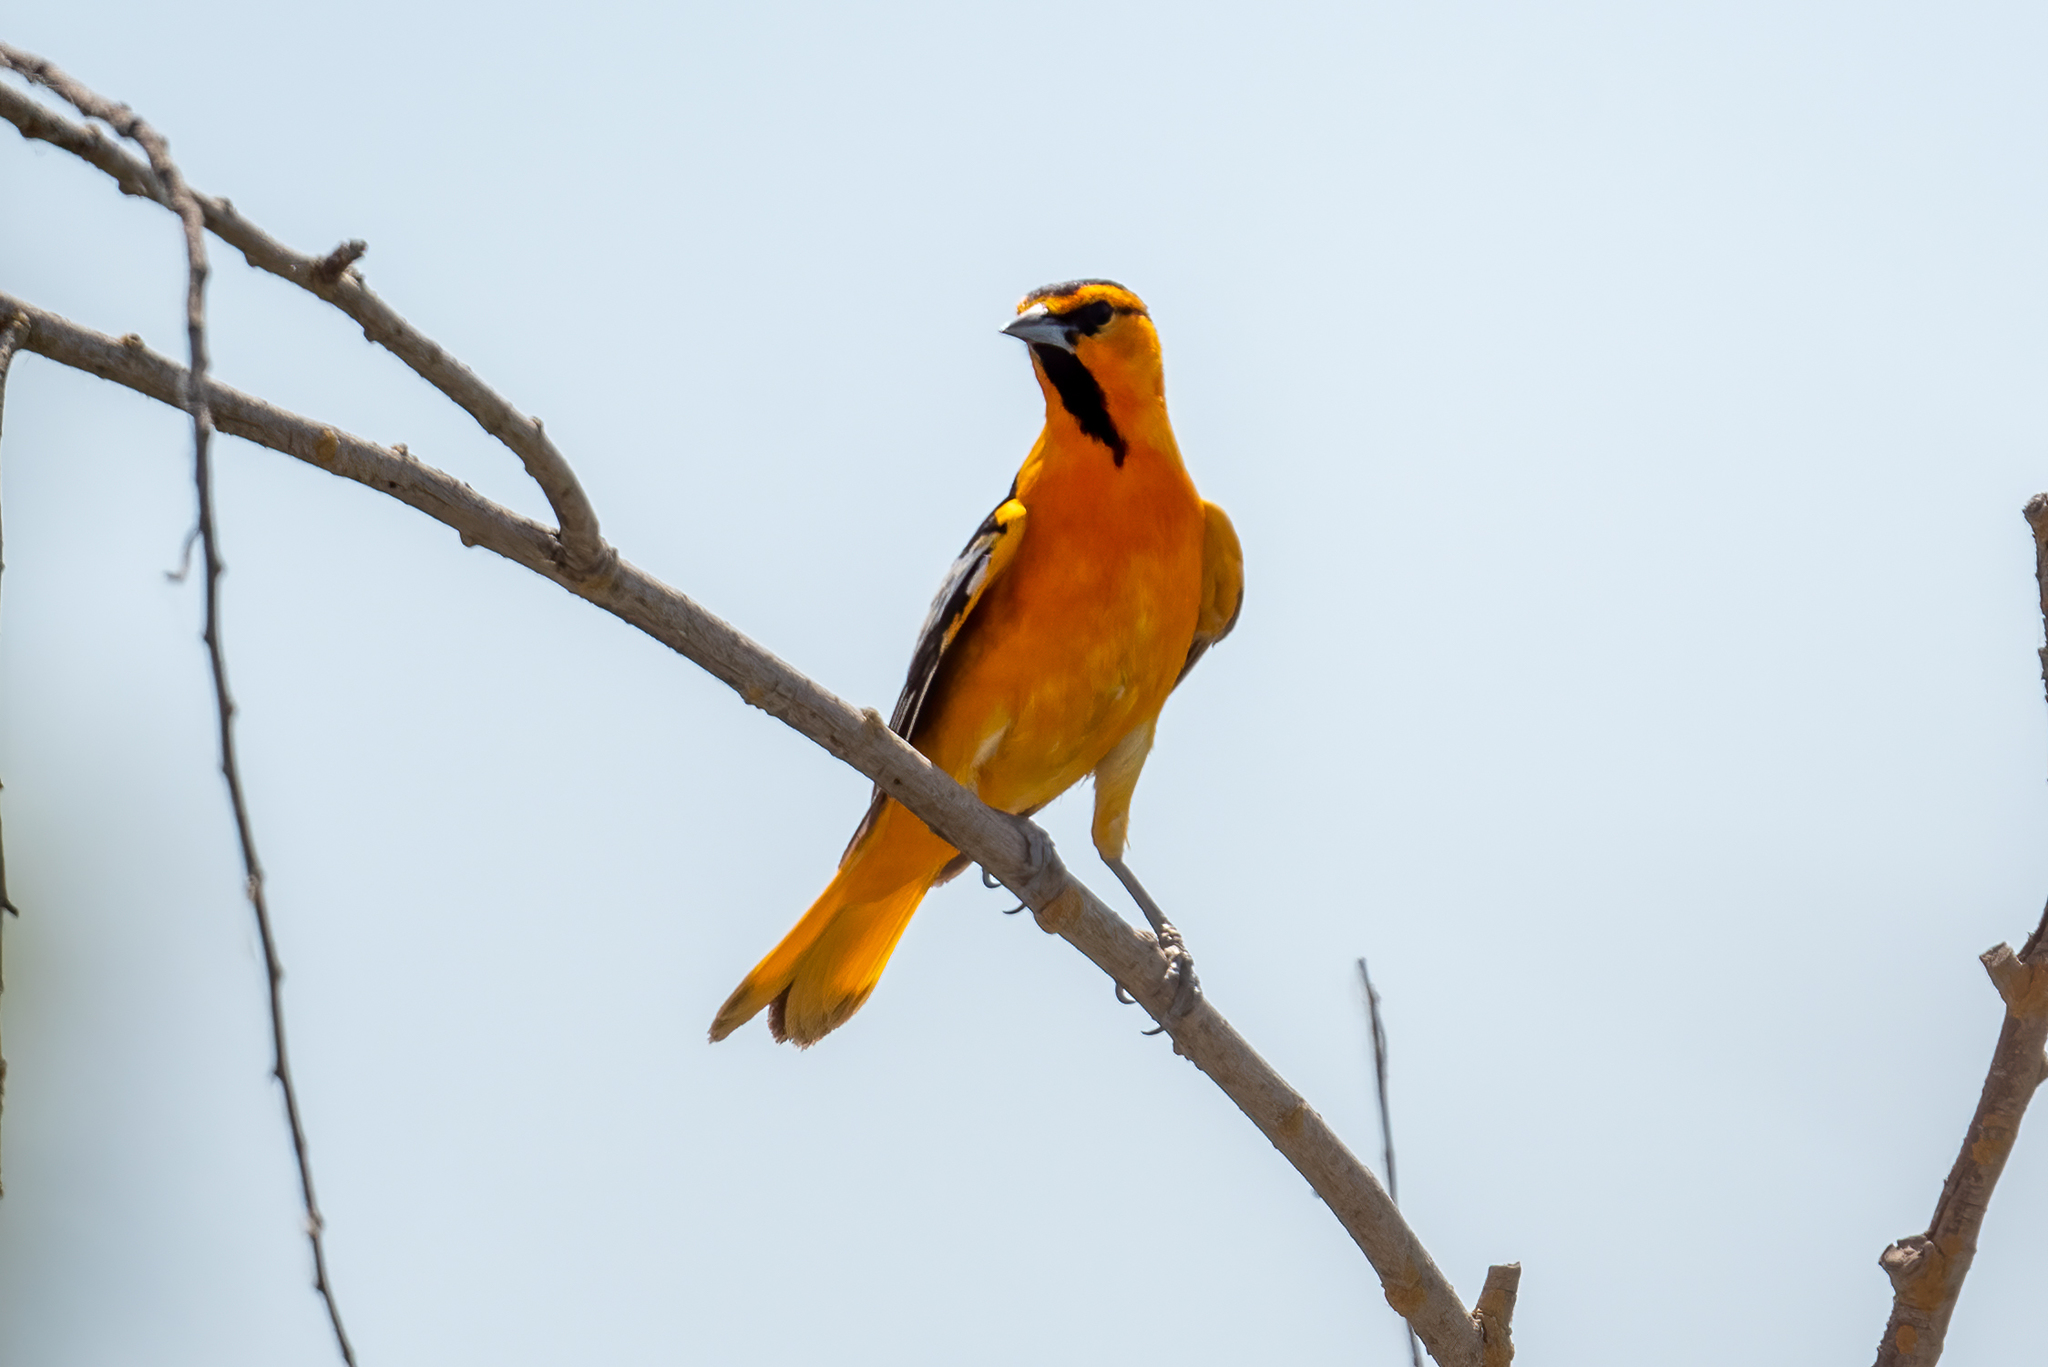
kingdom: Animalia
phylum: Chordata
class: Aves
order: Passeriformes
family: Icteridae
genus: Icterus
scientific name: Icterus bullockii
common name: Bullock's oriole
